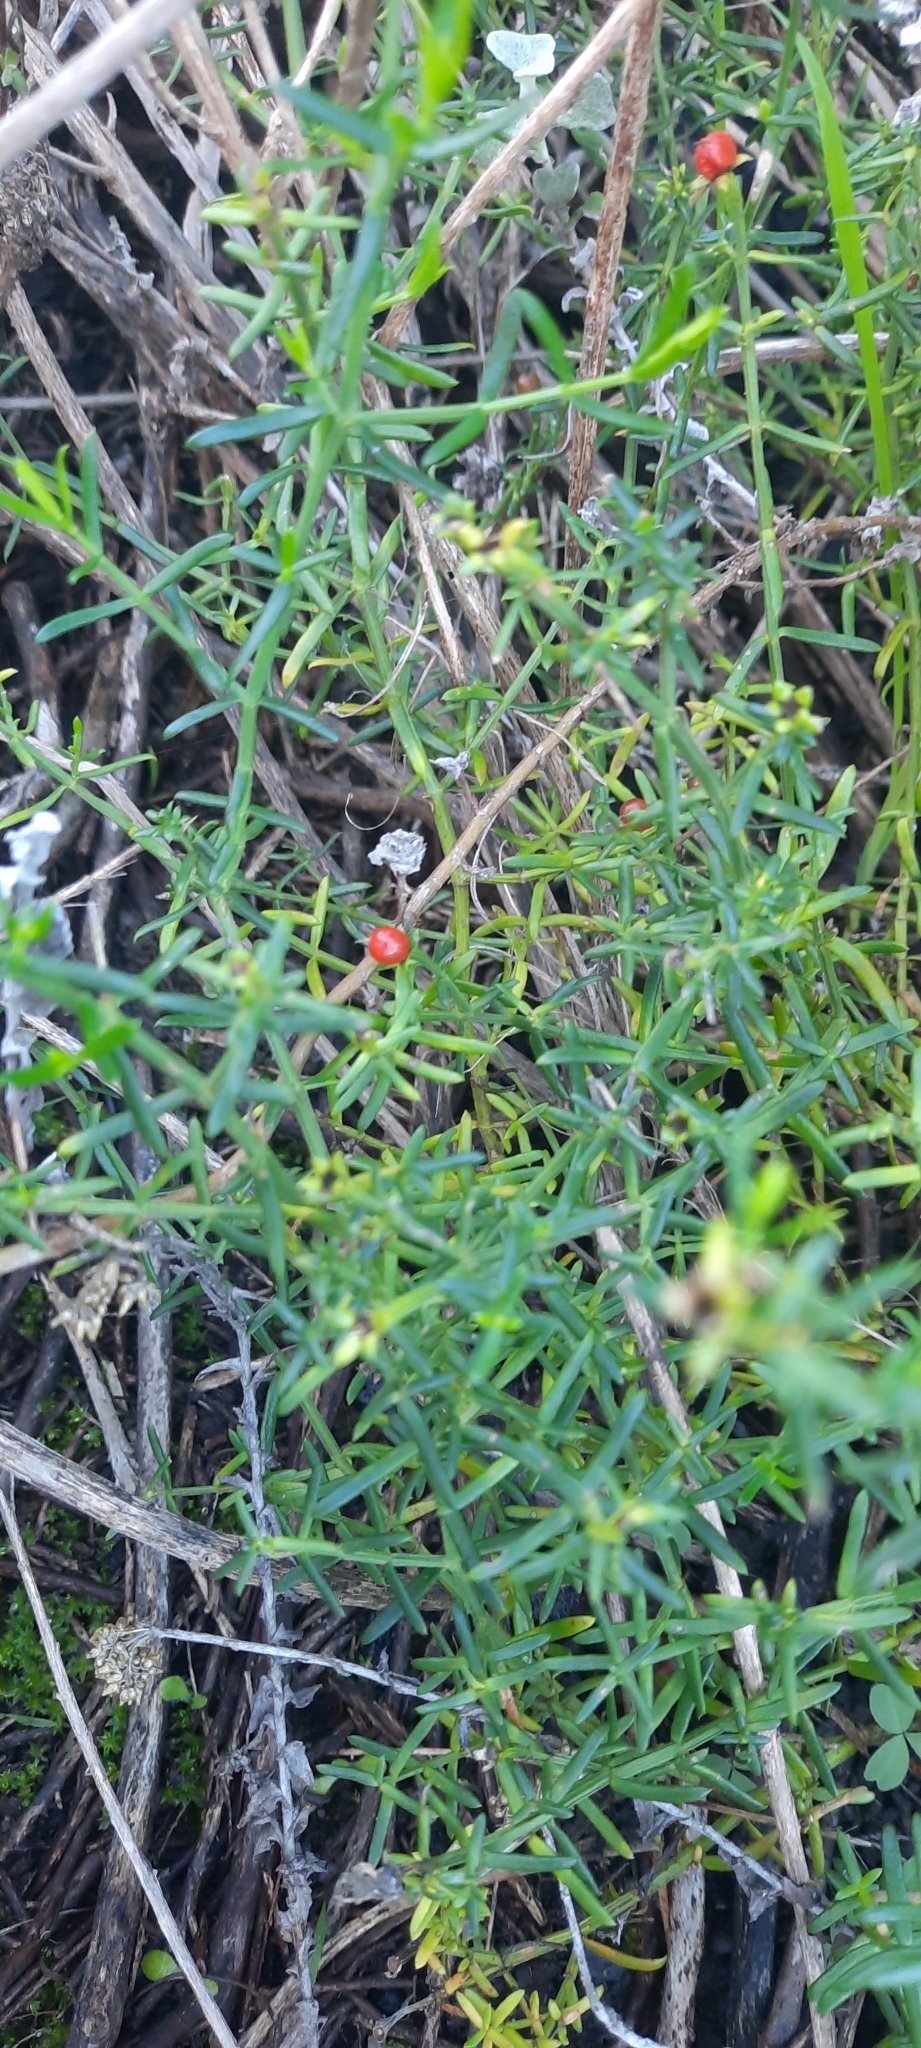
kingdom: Plantae
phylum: Tracheophyta
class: Magnoliopsida
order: Gentianales
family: Gentianaceae
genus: Chironia
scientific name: Chironia baccifera
